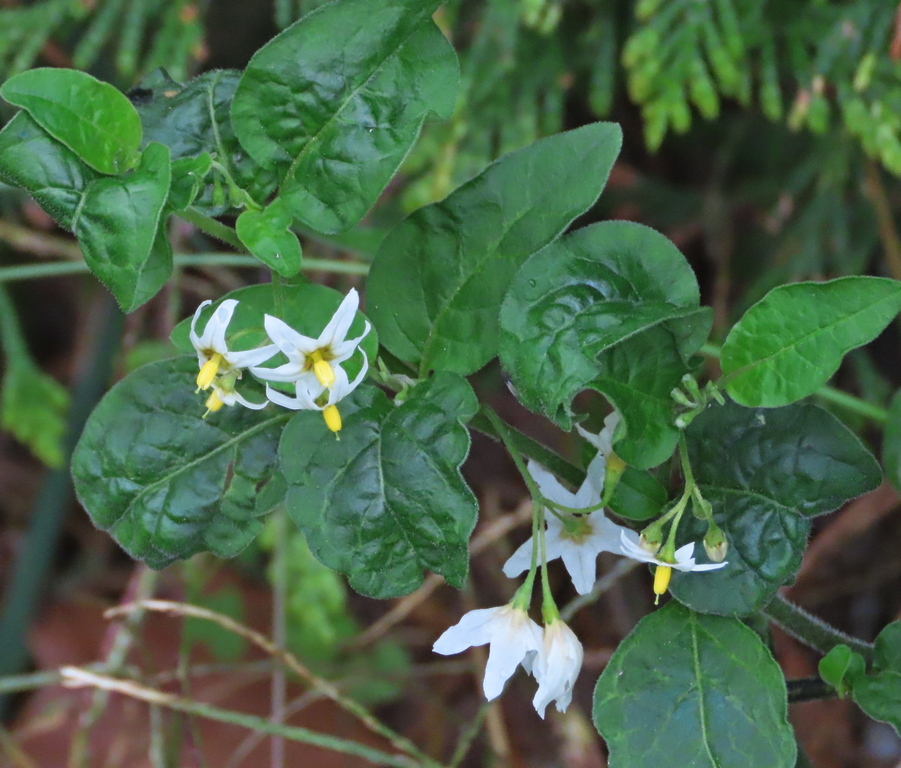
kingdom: Plantae
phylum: Tracheophyta
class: Magnoliopsida
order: Solanales
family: Solanaceae
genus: Solanum
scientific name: Solanum chenopodioides
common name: Tall nightshade
